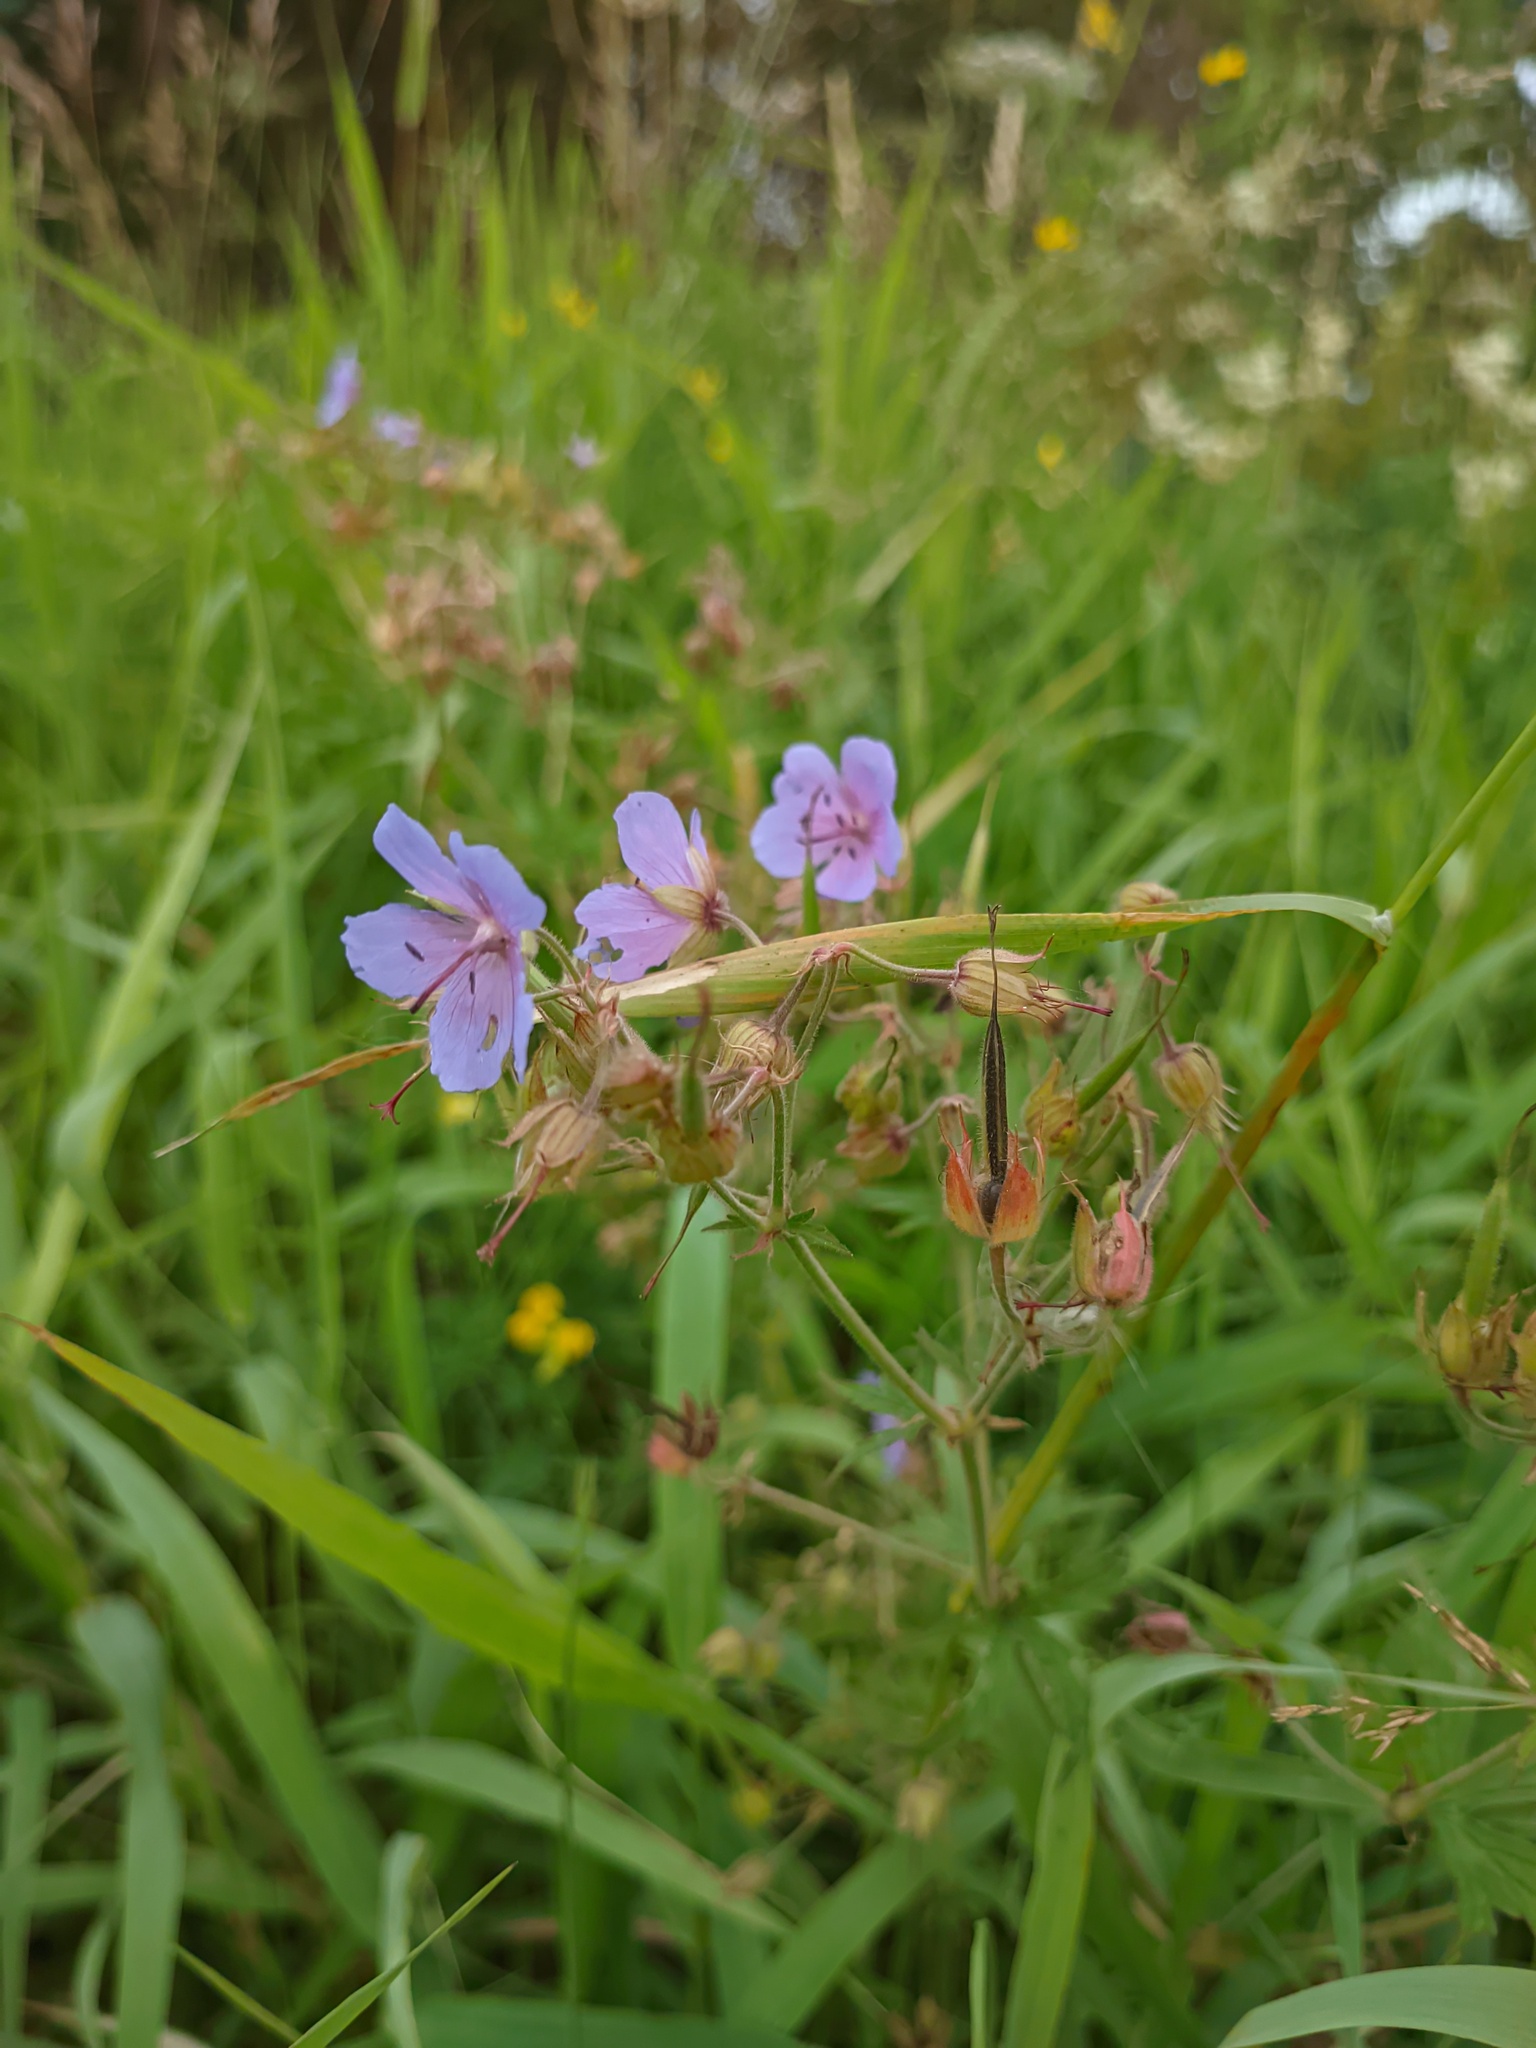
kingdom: Plantae
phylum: Tracheophyta
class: Magnoliopsida
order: Geraniales
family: Geraniaceae
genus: Geranium
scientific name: Geranium pratense
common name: Meadow crane's-bill
